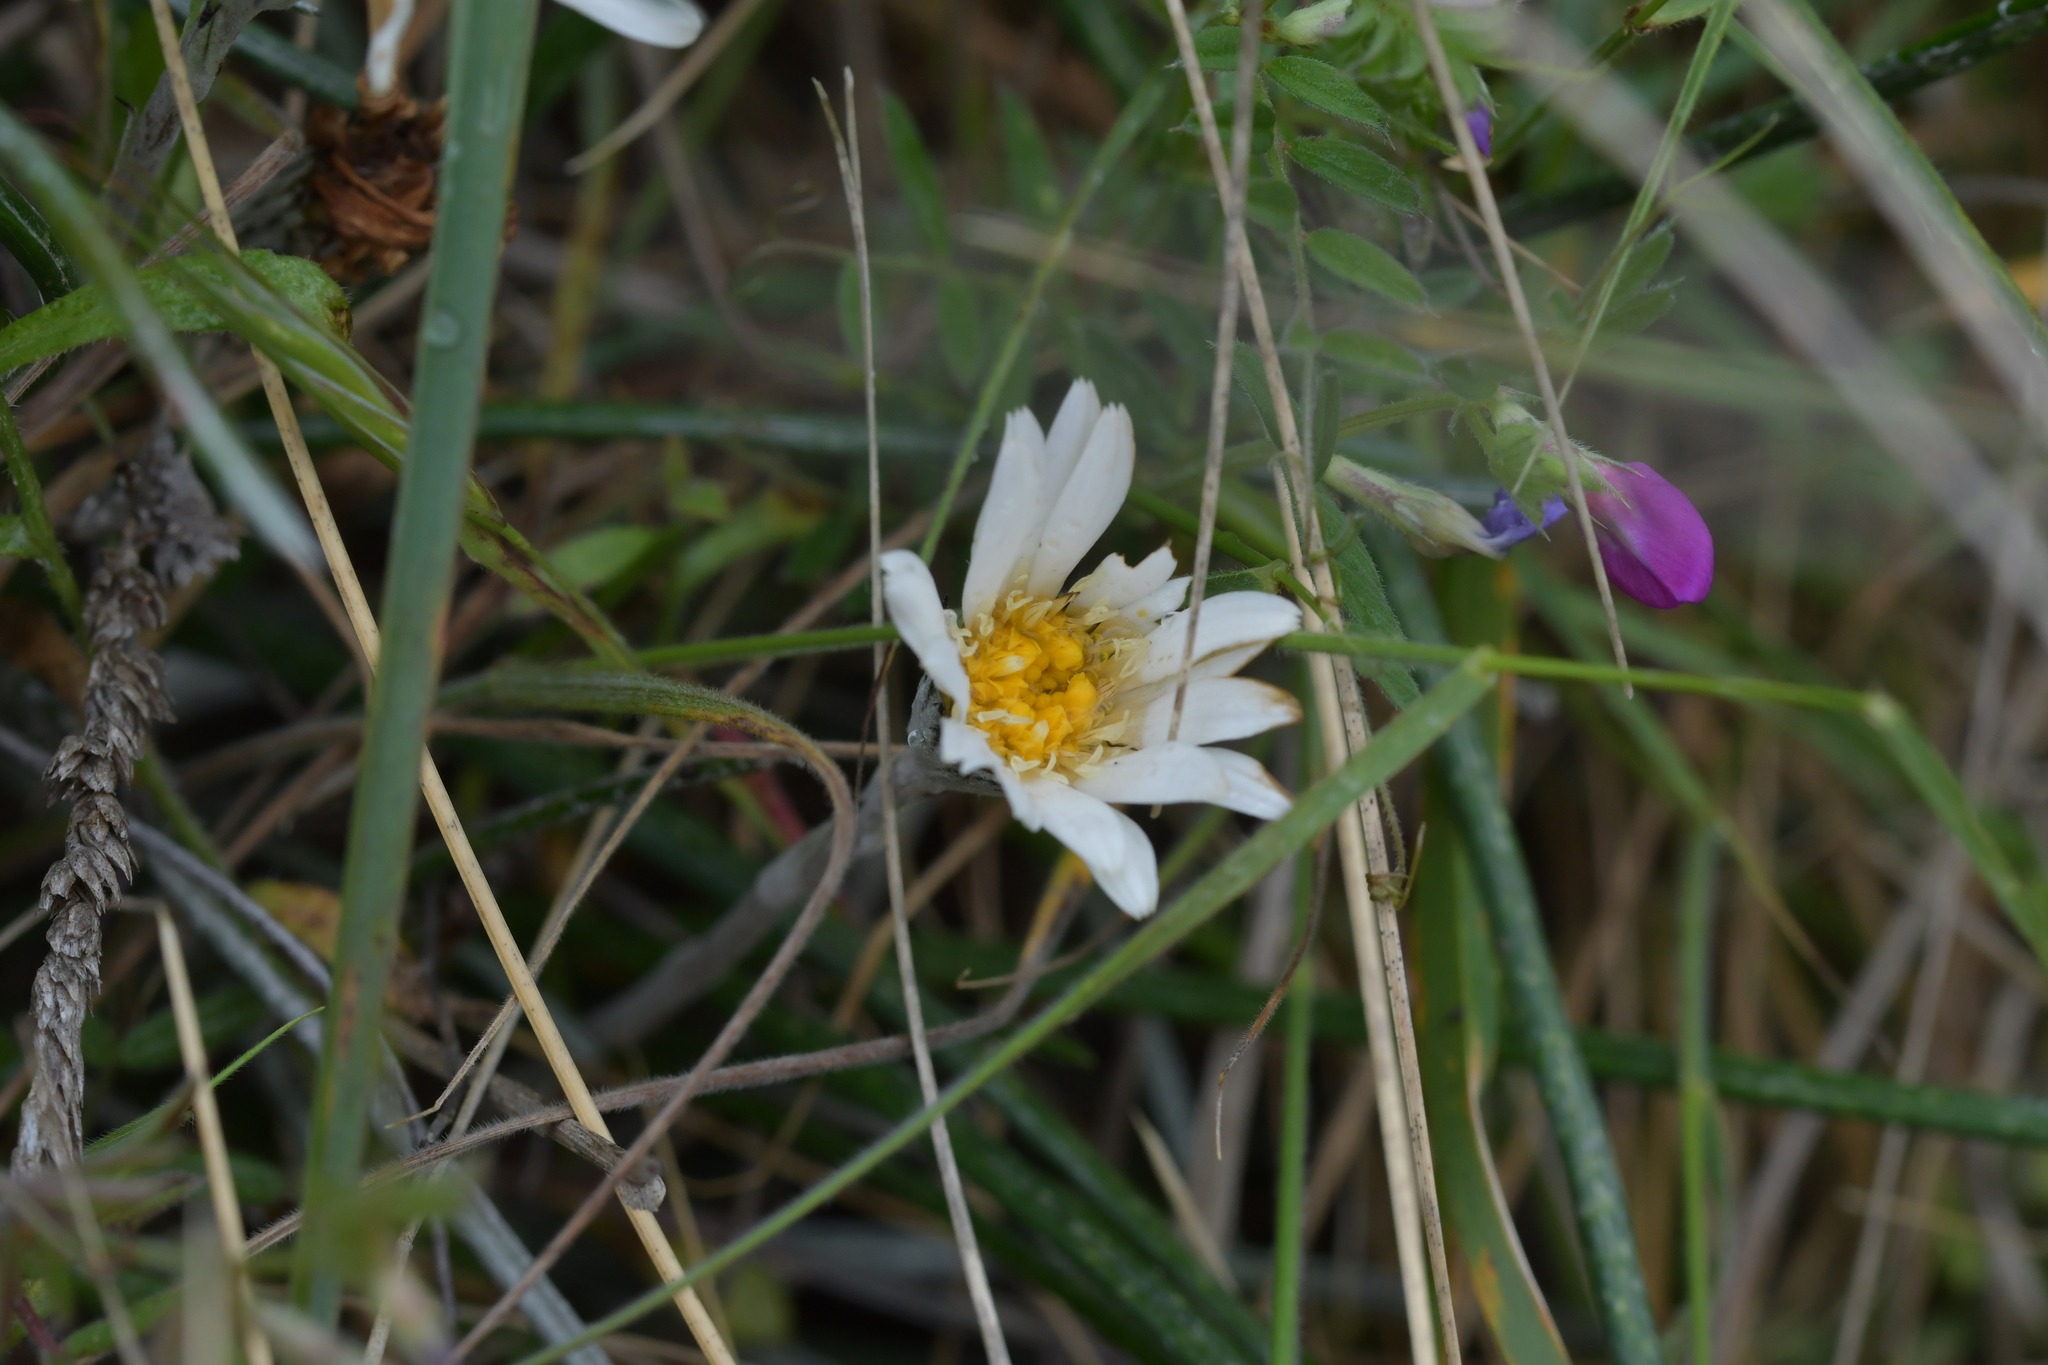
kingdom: Plantae
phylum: Tracheophyta
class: Magnoliopsida
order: Asterales
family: Asteraceae
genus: Celmisia
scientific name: Celmisia gracilenta
